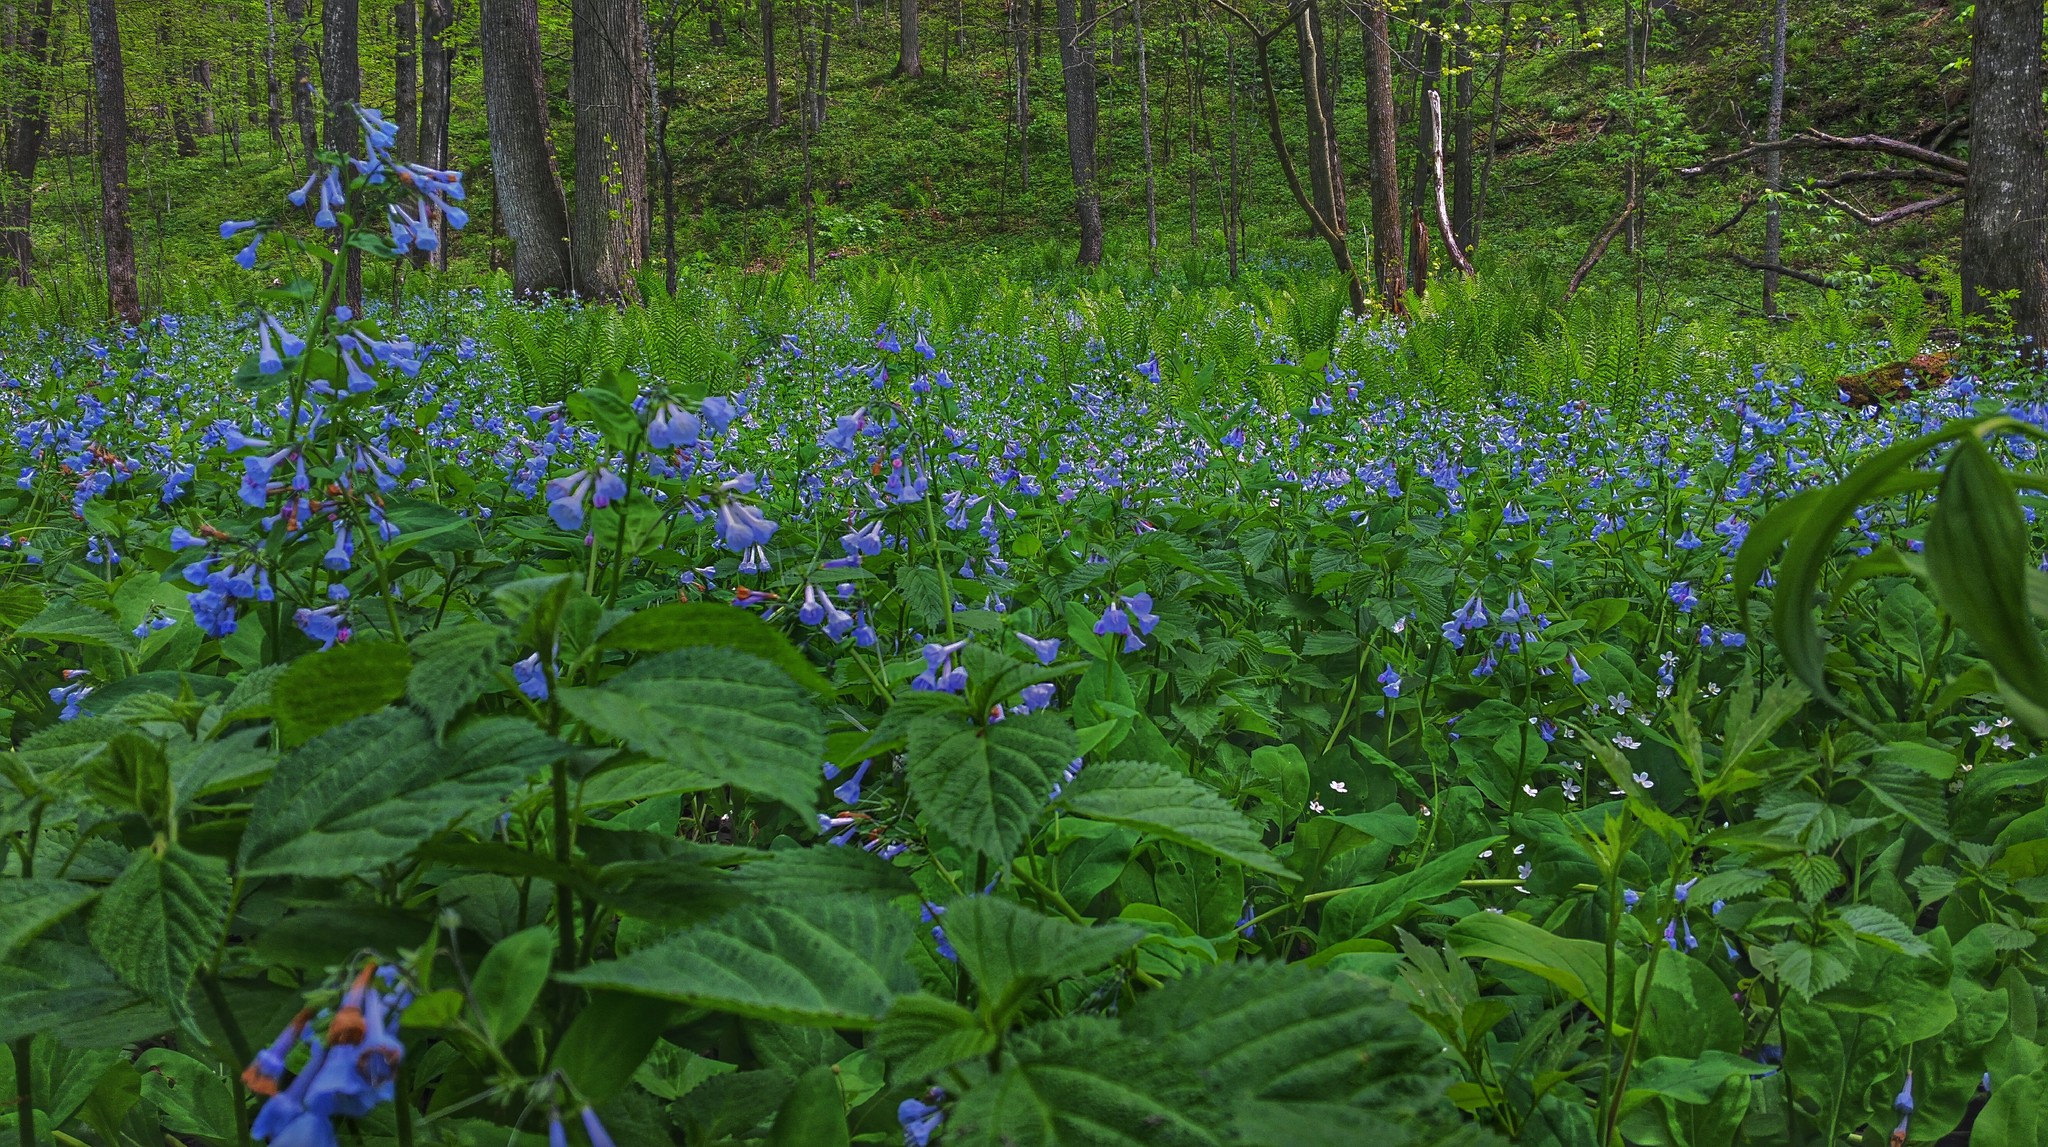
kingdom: Plantae
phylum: Tracheophyta
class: Magnoliopsida
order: Boraginales
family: Boraginaceae
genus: Mertensia
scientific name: Mertensia virginica
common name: Virginia bluebells
